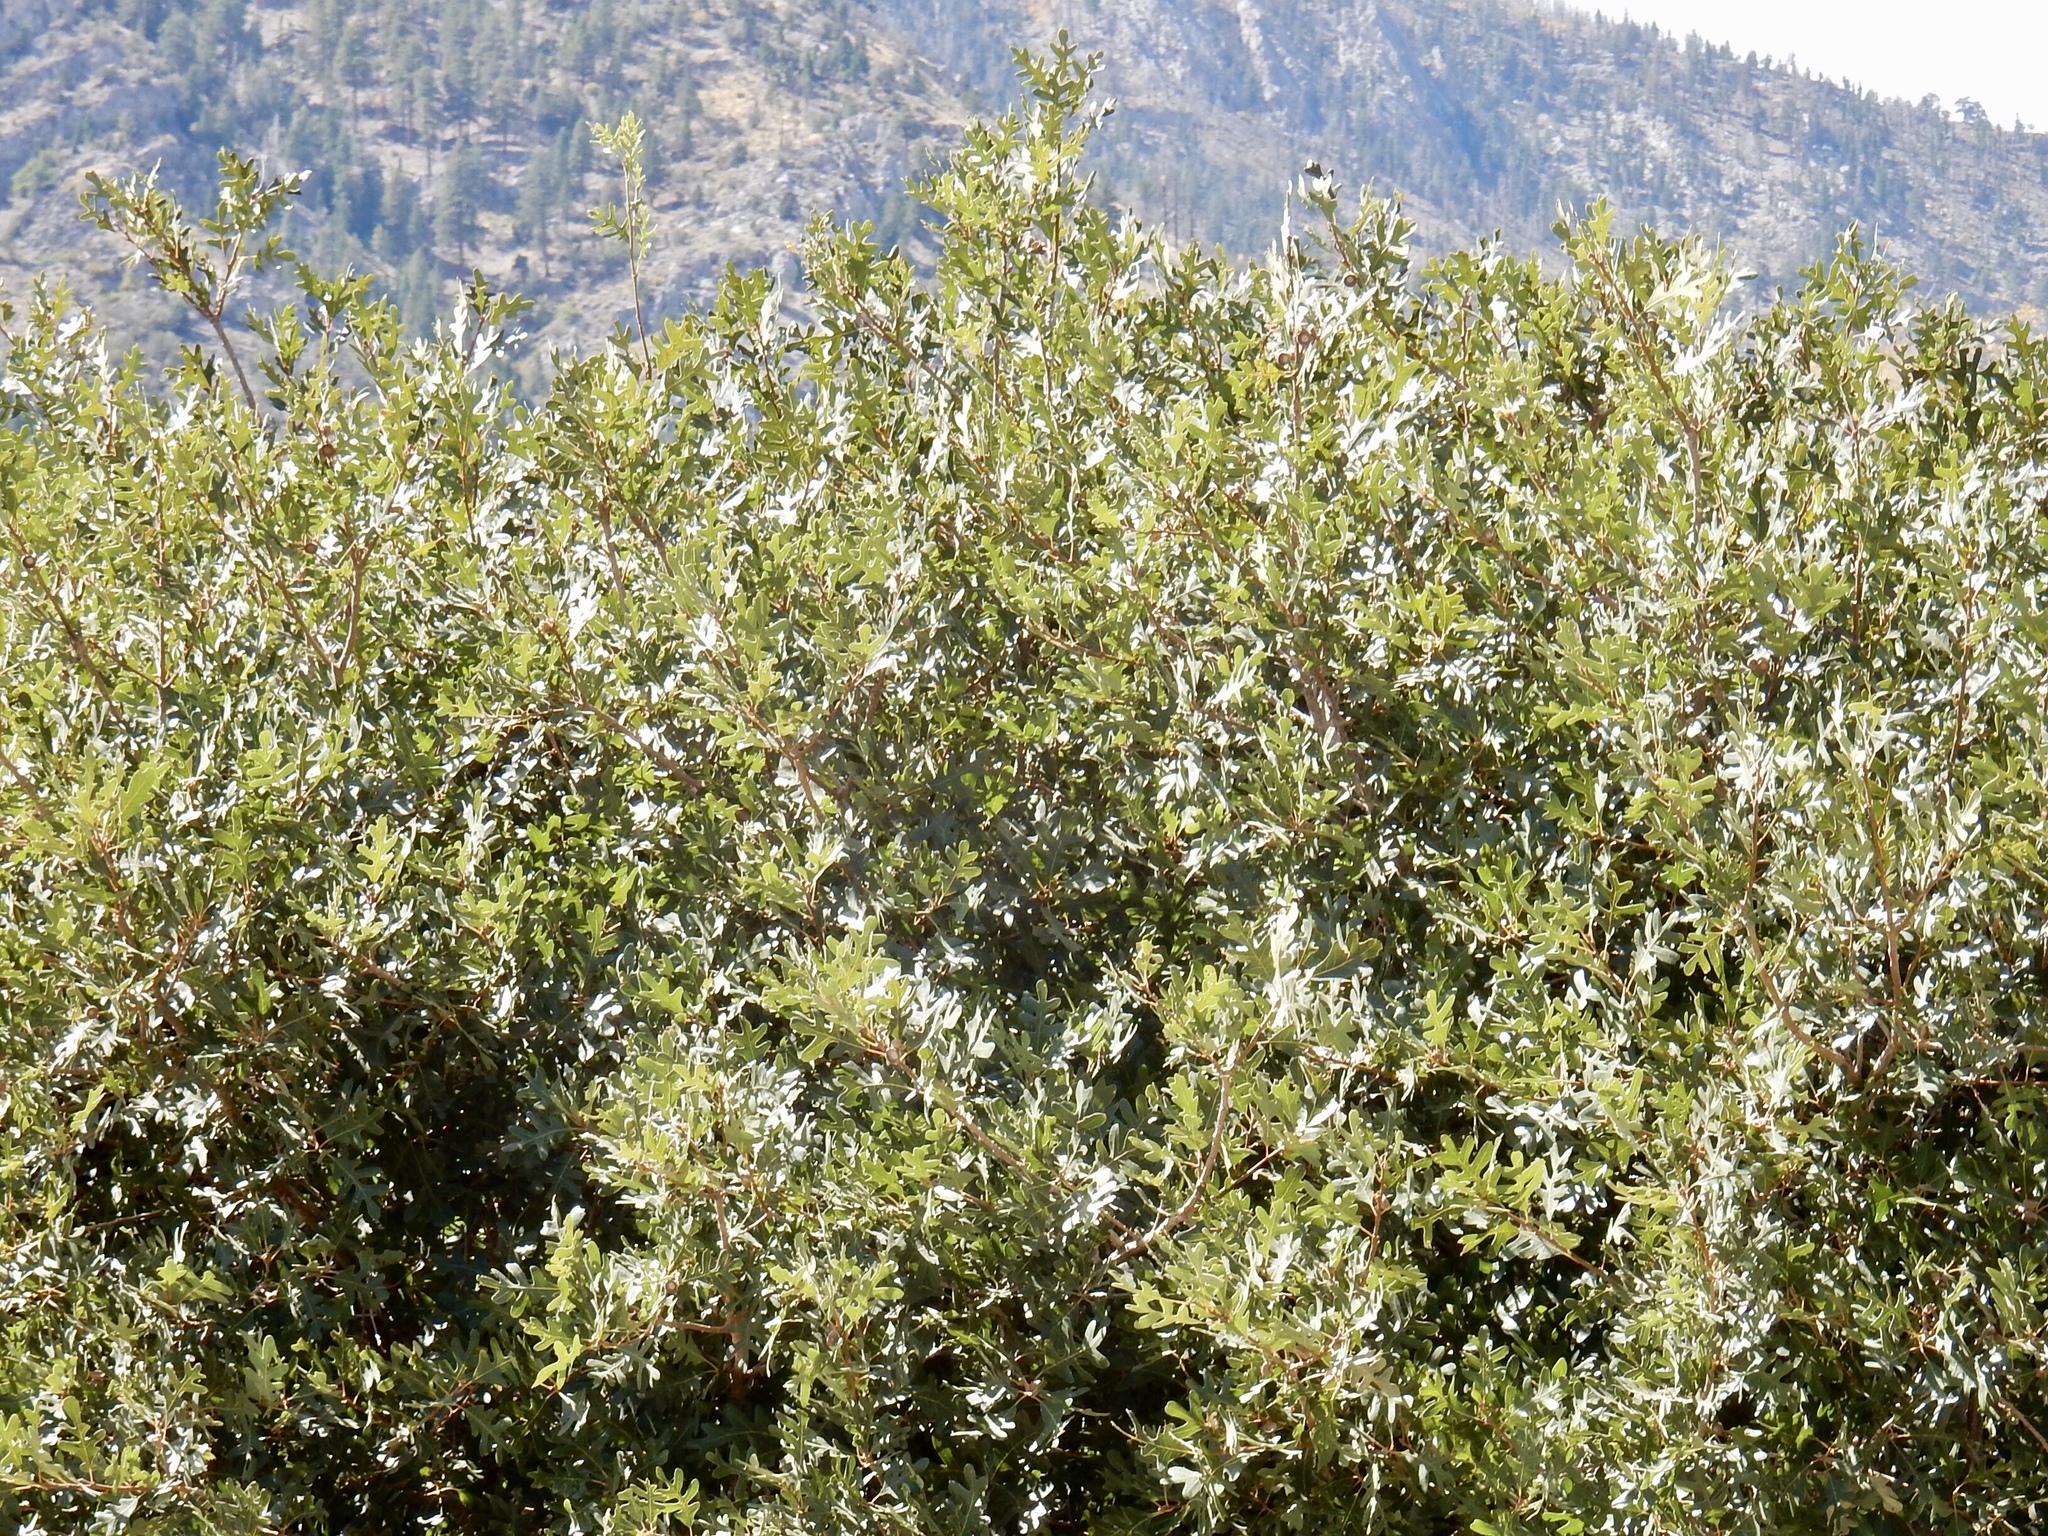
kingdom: Plantae
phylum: Tracheophyta
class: Magnoliopsida
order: Fagales
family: Fagaceae
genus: Quercus
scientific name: Quercus gambelii
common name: Gambel oak
